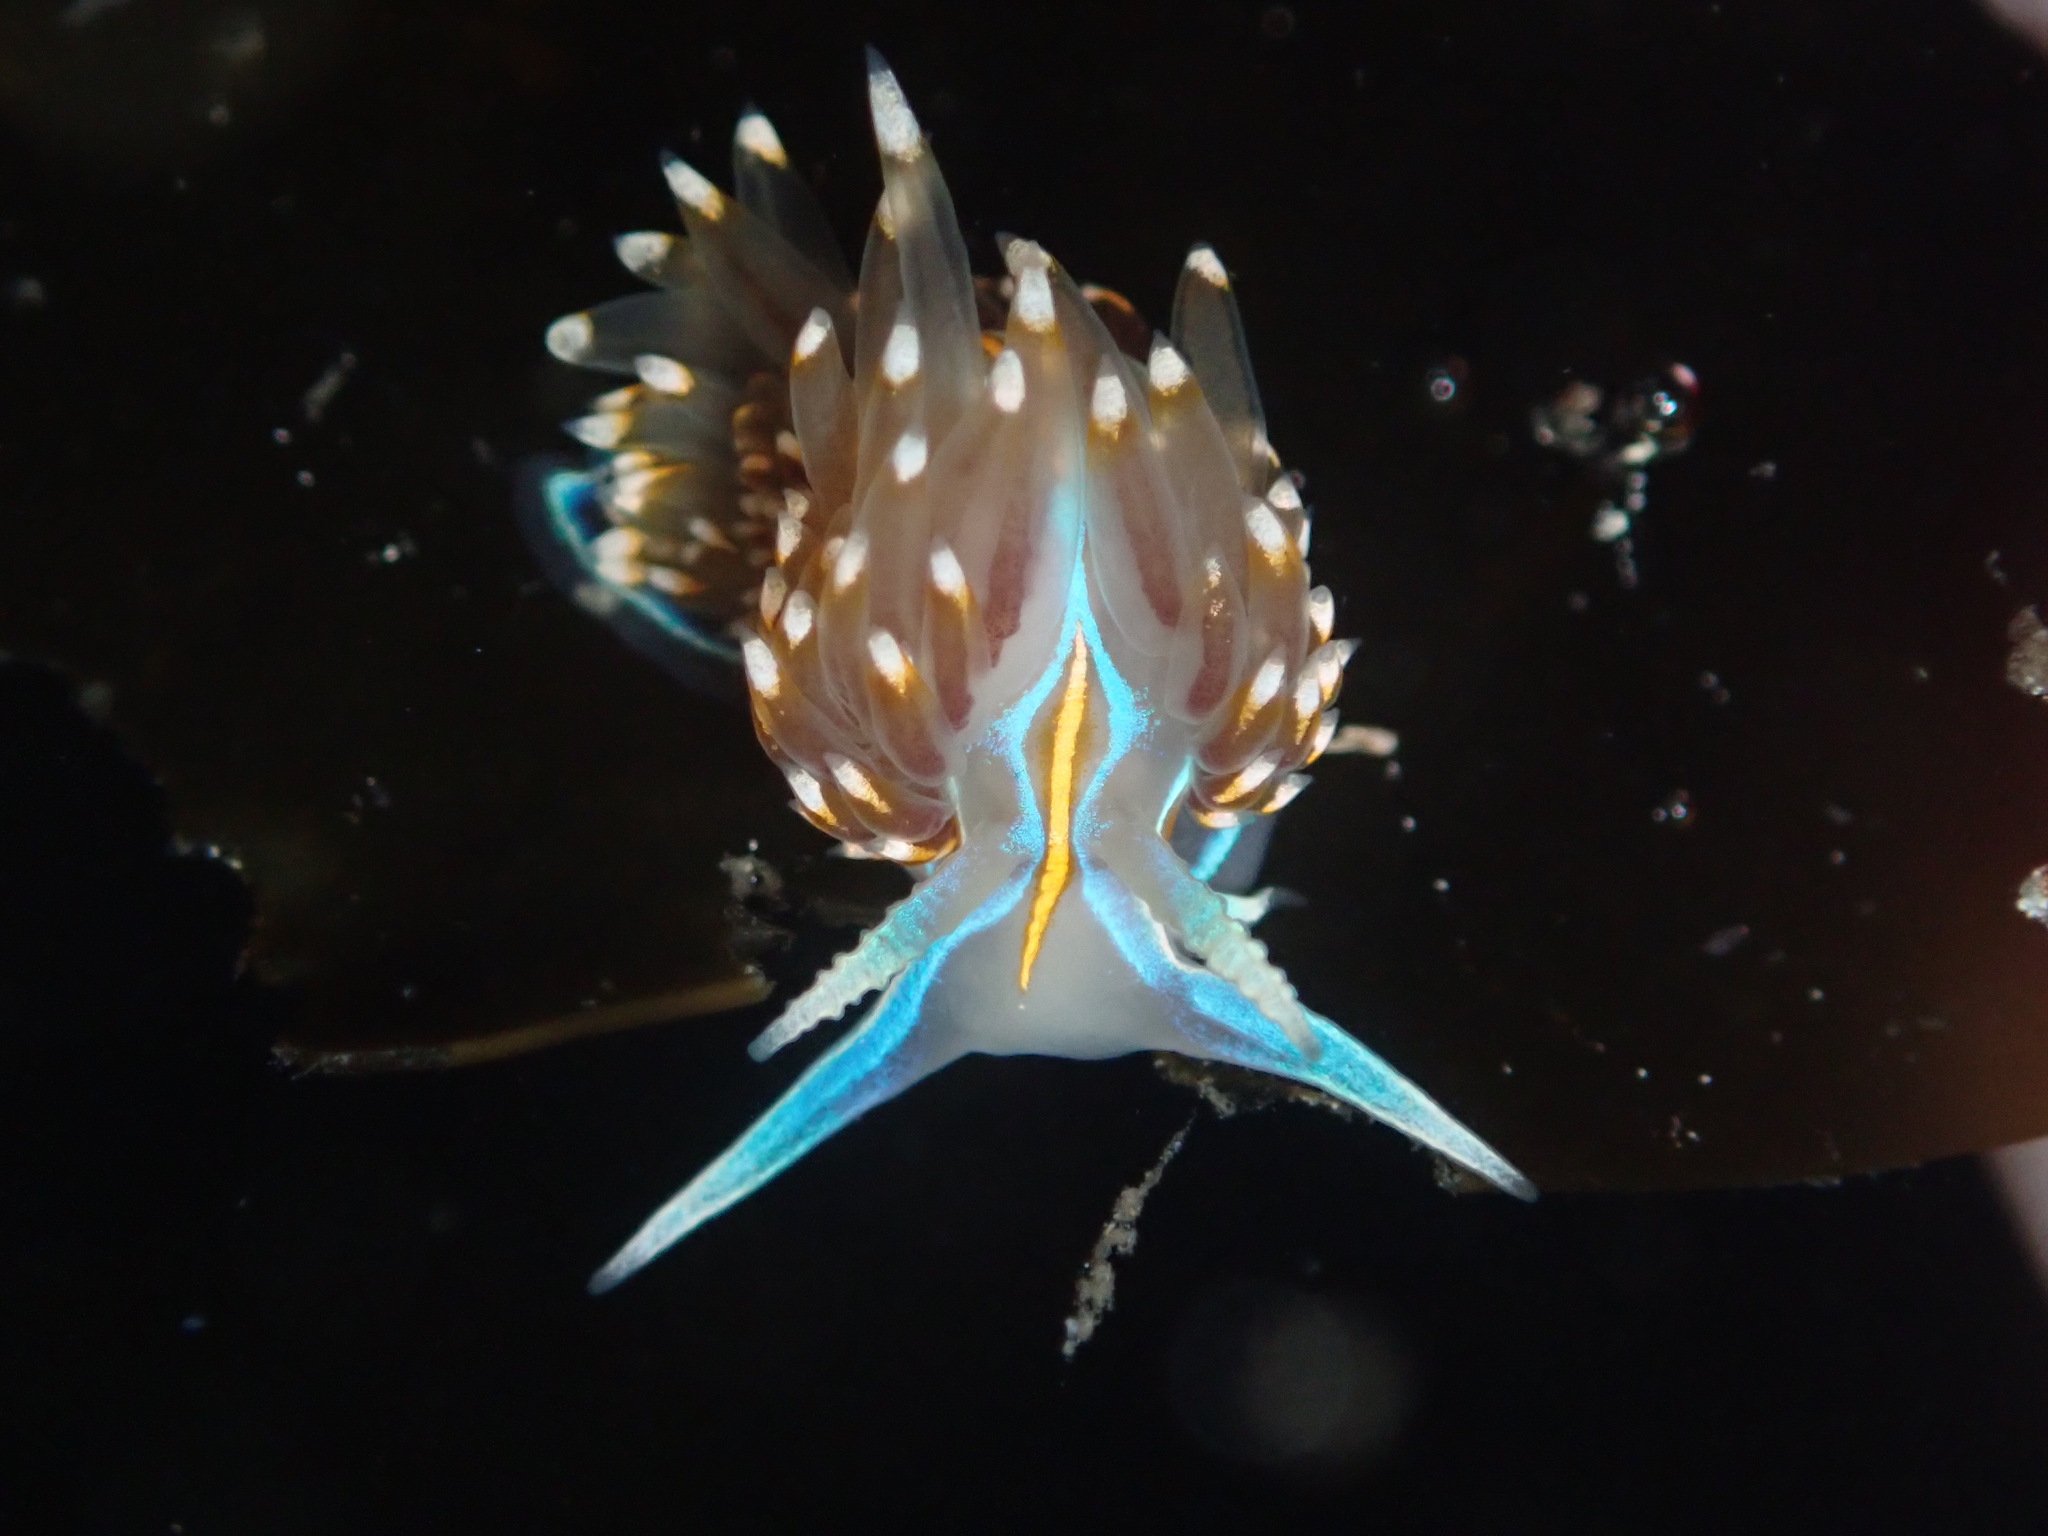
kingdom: Animalia
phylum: Mollusca
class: Gastropoda
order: Nudibranchia
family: Myrrhinidae
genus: Hermissenda
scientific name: Hermissenda opalescens
